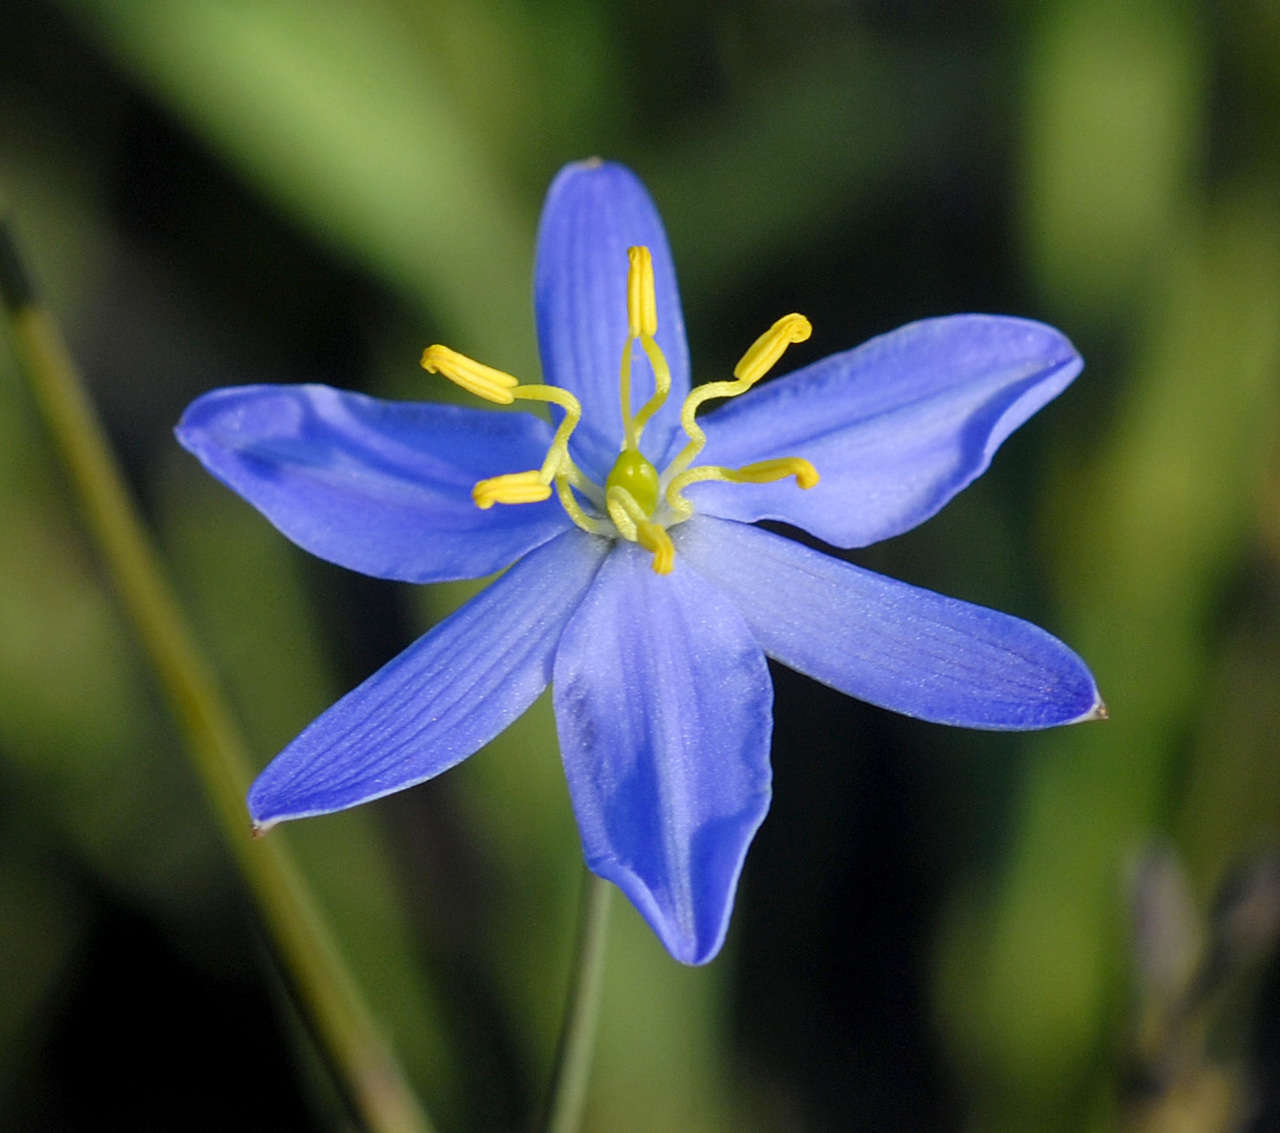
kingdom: Plantae
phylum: Tracheophyta
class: Liliopsida
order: Asparagales
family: Asphodelaceae
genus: Thelionema
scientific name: Thelionema caespitosum
